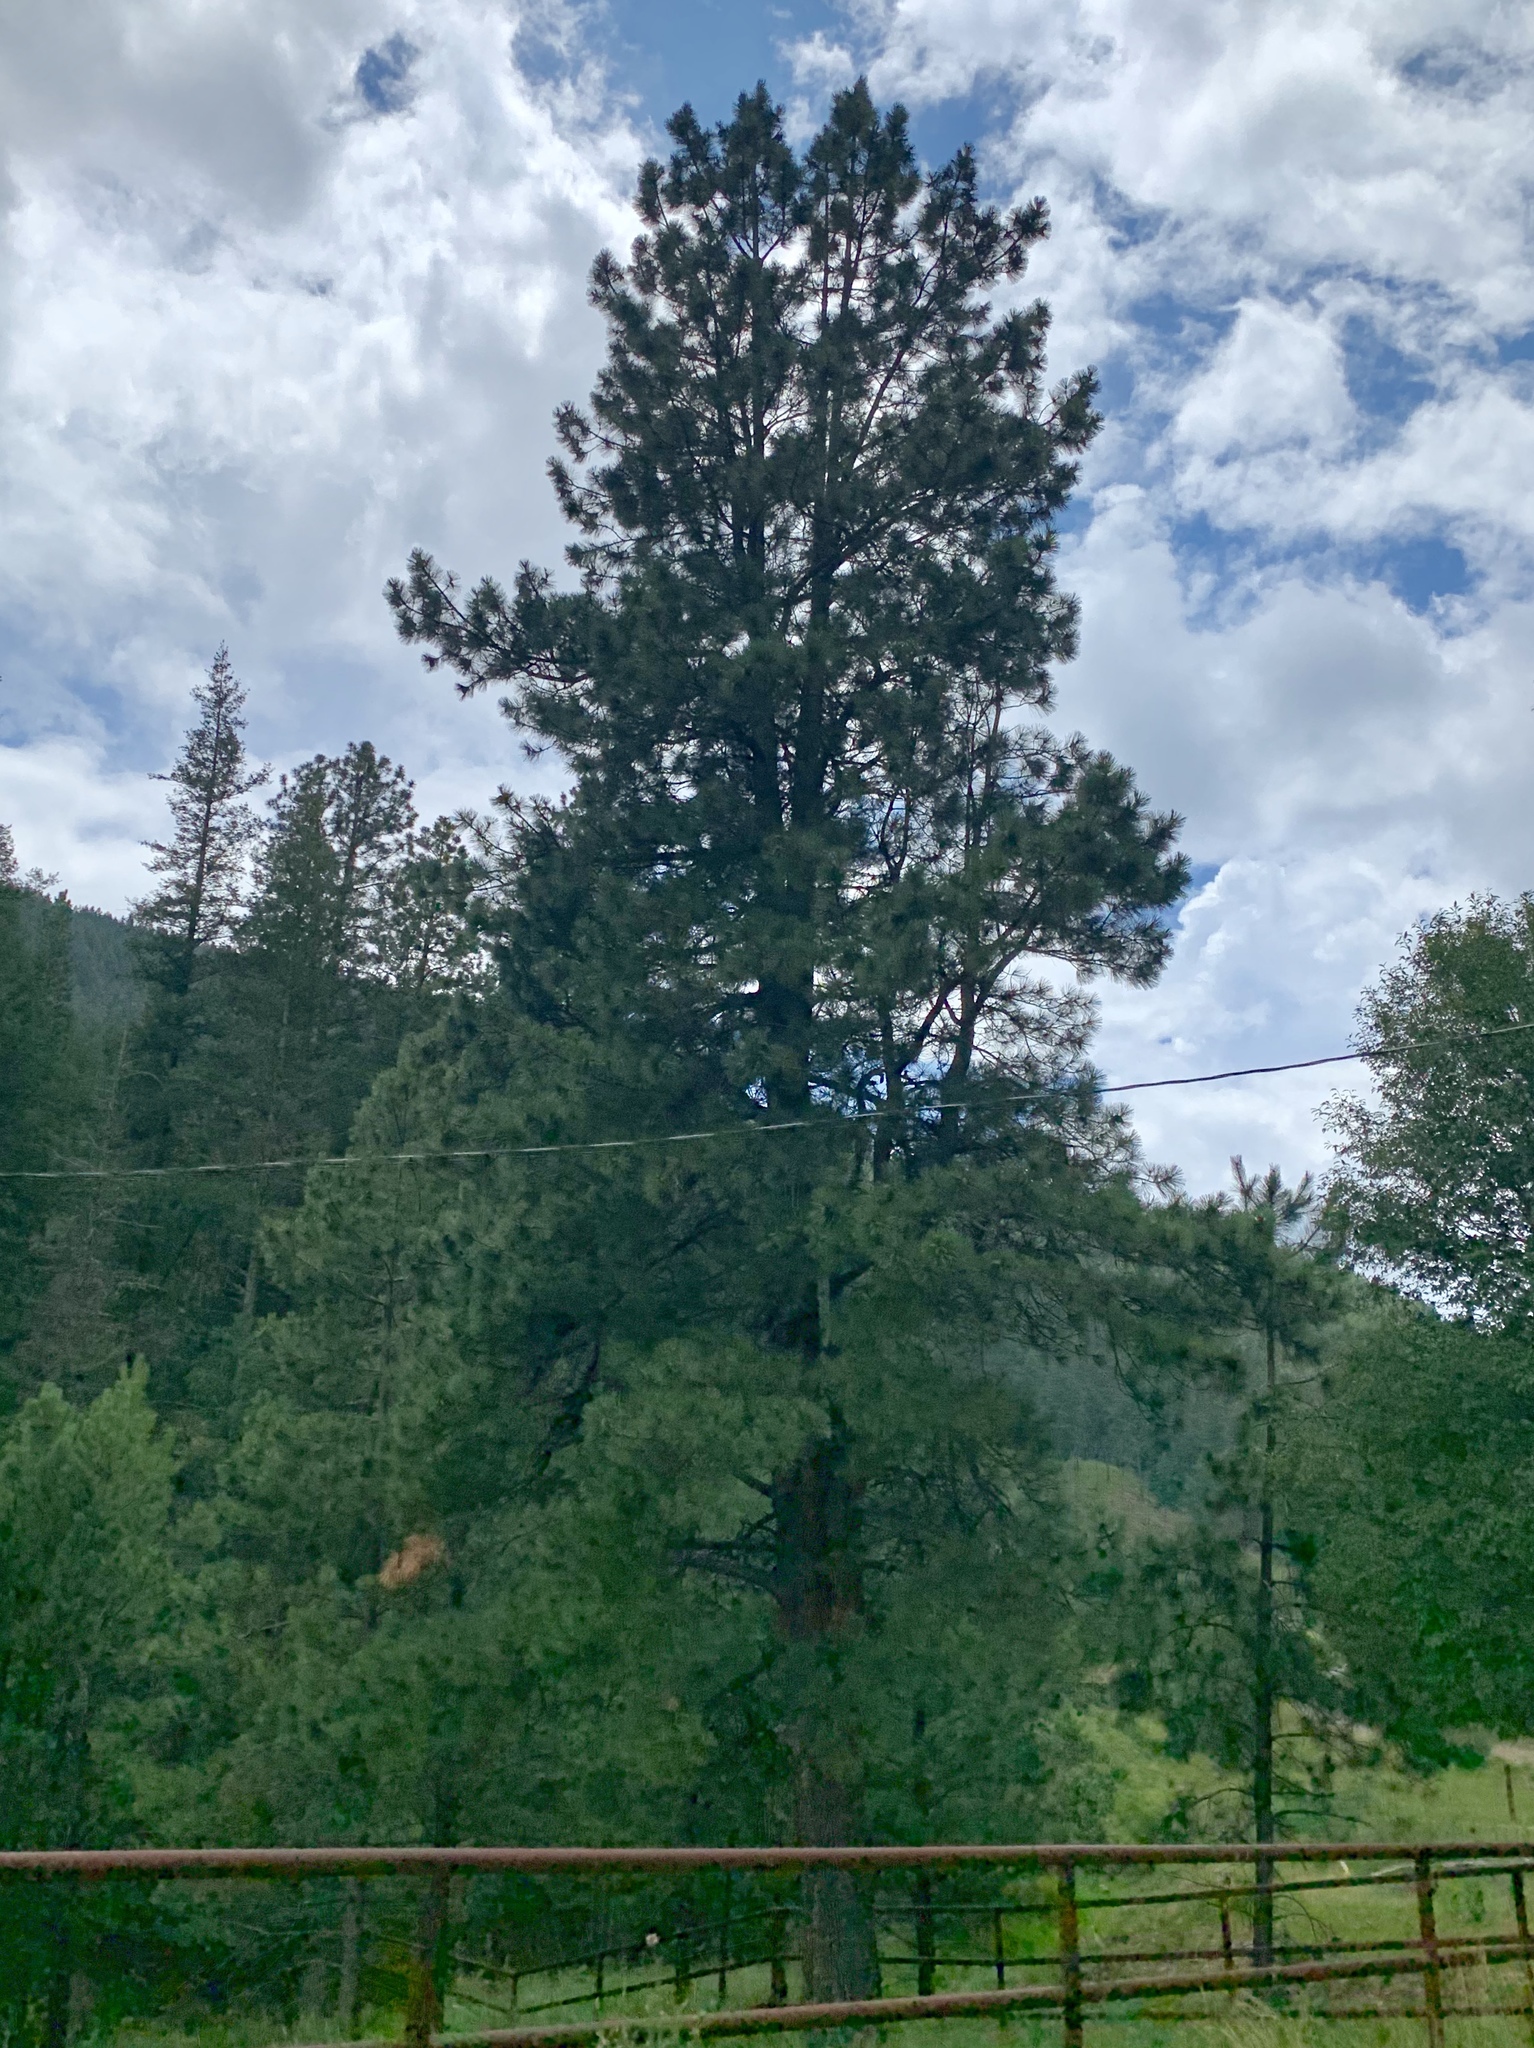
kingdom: Plantae
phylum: Tracheophyta
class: Pinopsida
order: Pinales
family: Pinaceae
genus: Pinus
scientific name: Pinus ponderosa
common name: Western yellow-pine
